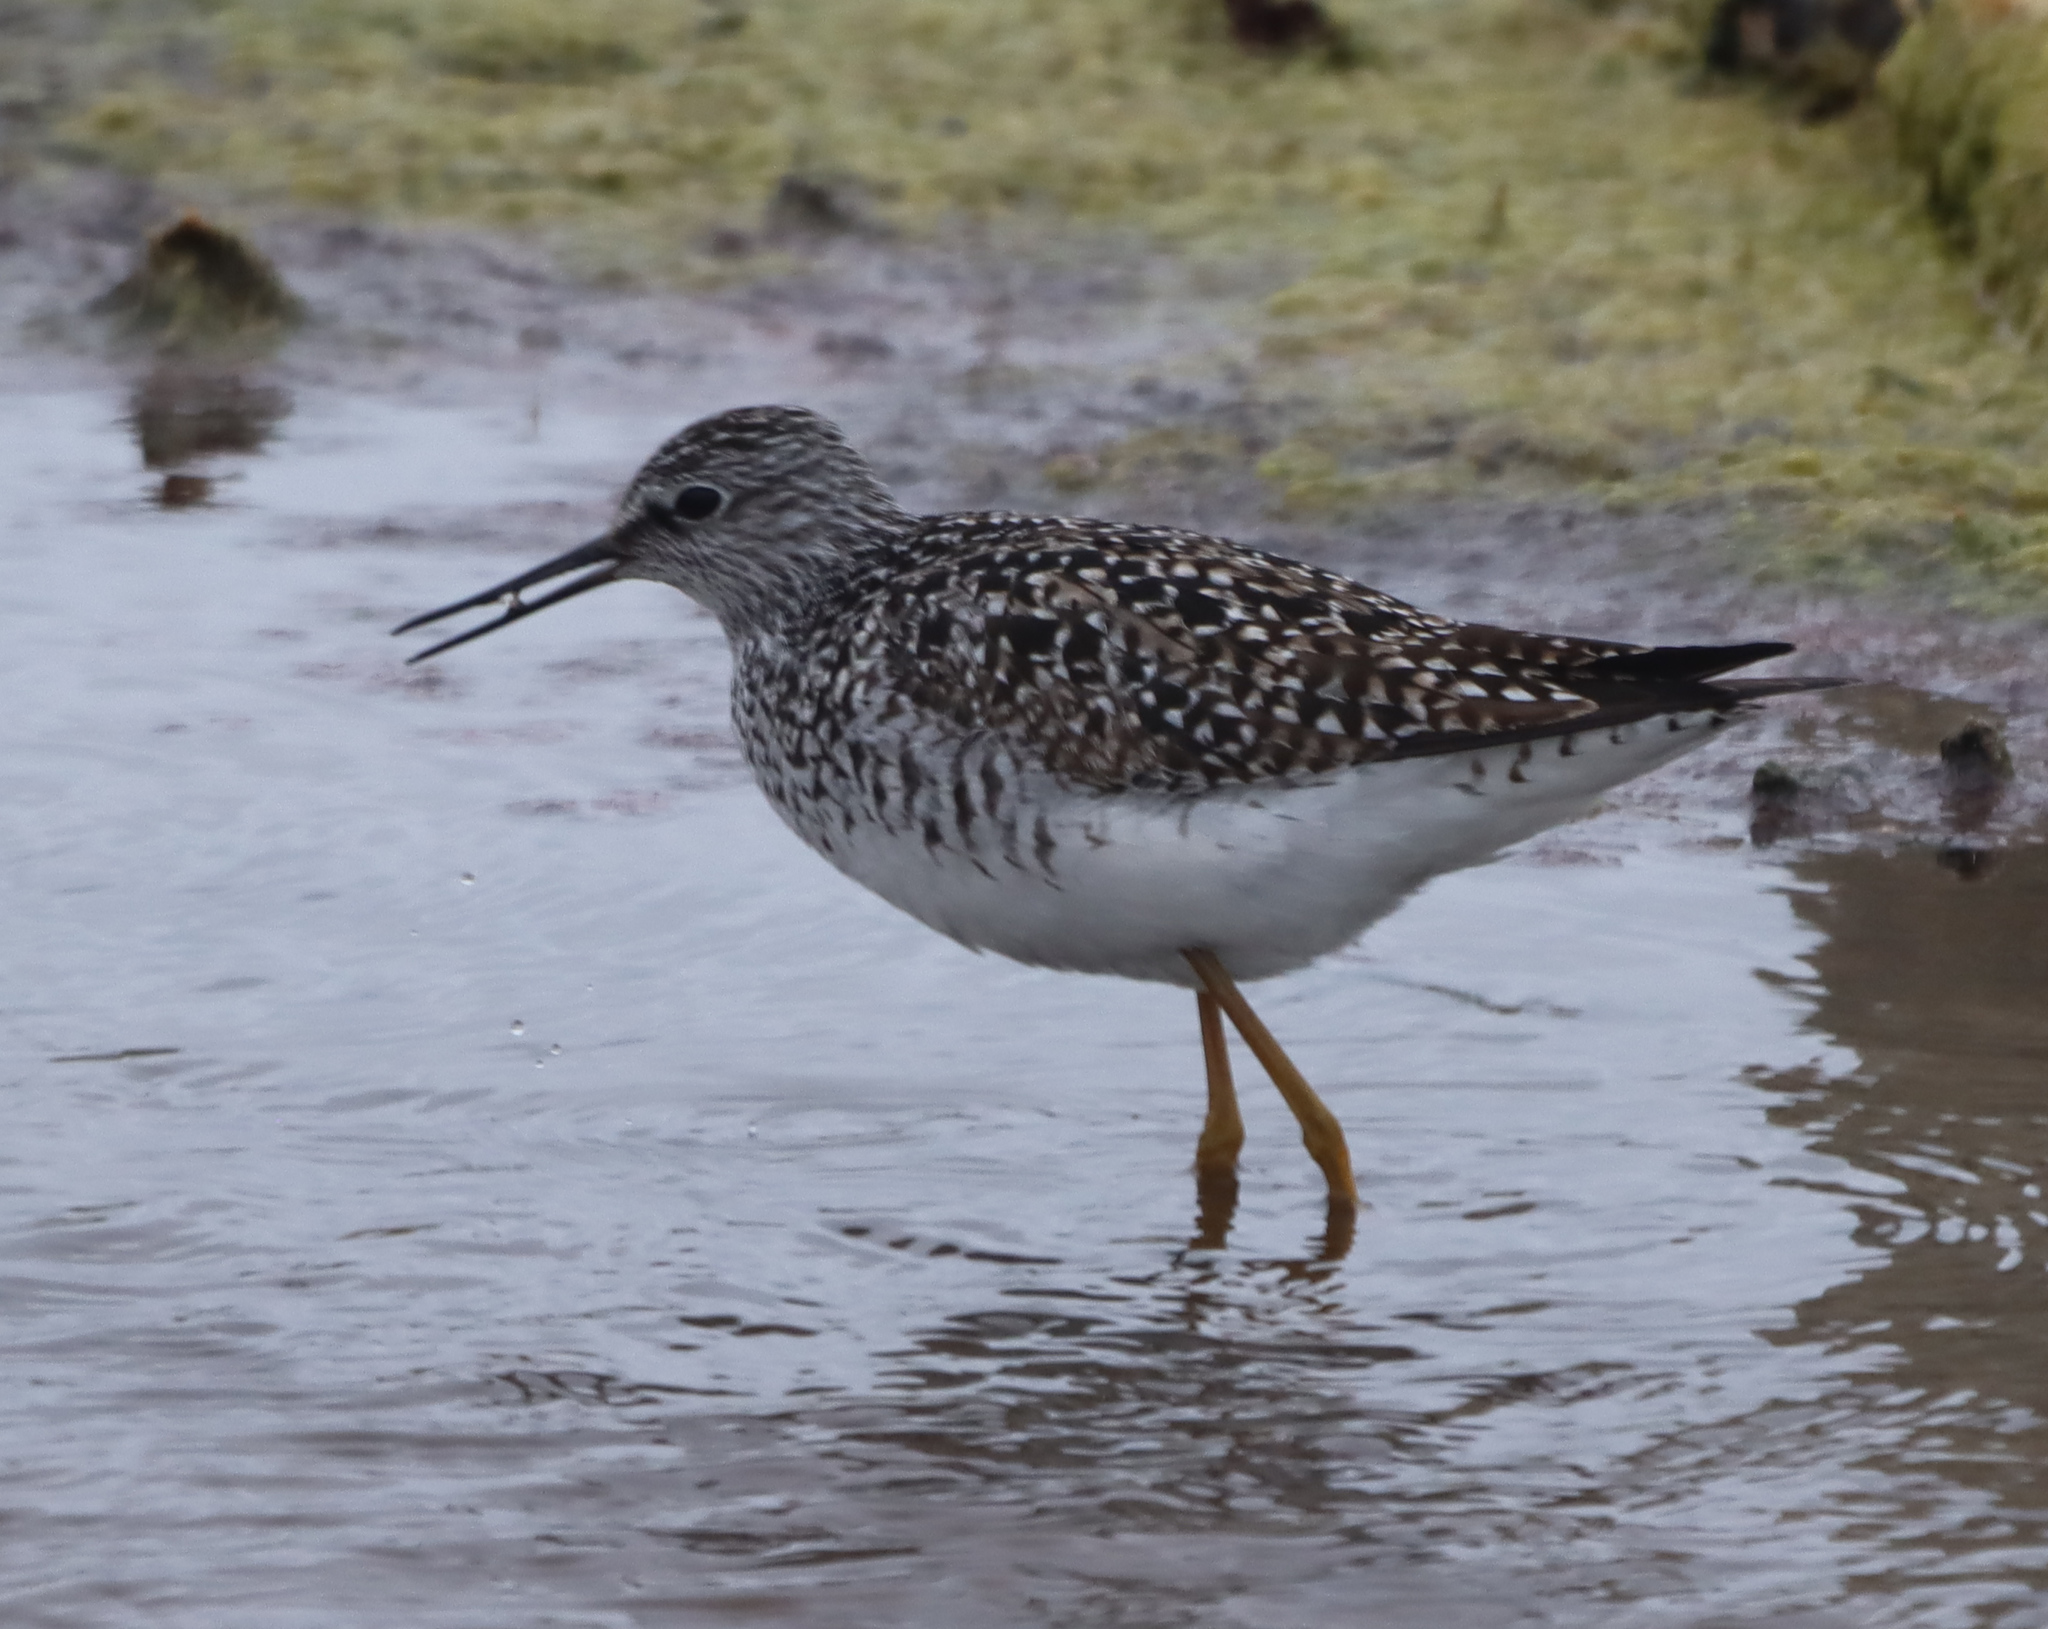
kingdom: Animalia
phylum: Chordata
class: Aves
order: Charadriiformes
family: Scolopacidae
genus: Tringa
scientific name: Tringa flavipes
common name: Lesser yellowlegs
